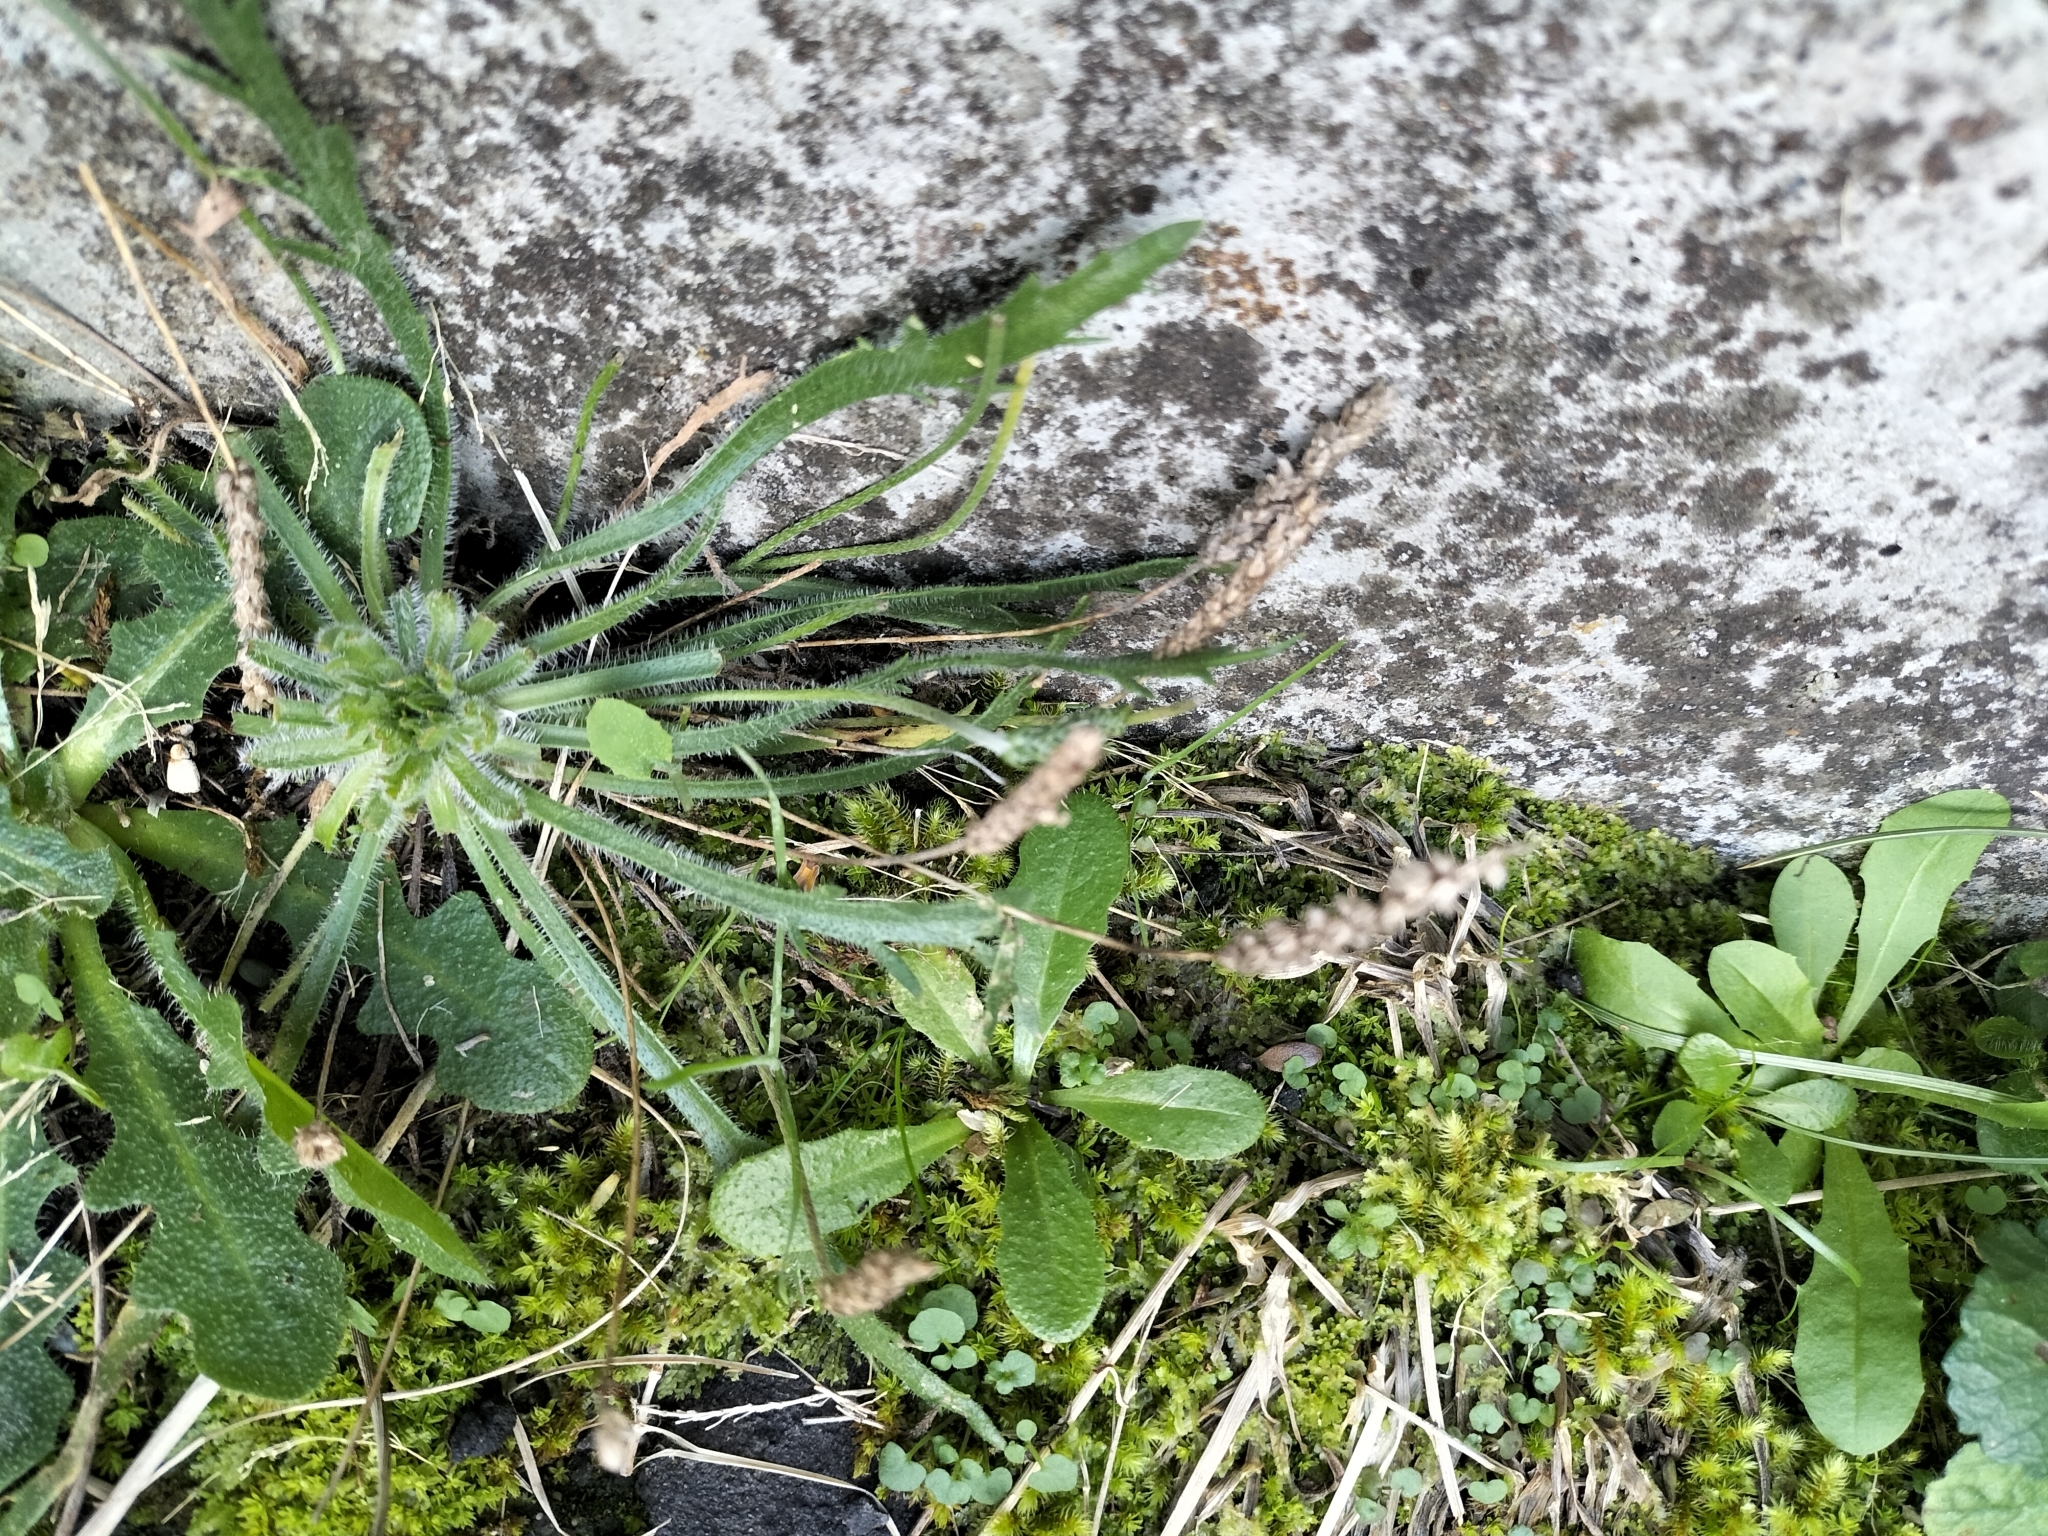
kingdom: Plantae
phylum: Tracheophyta
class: Magnoliopsida
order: Lamiales
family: Plantaginaceae
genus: Plantago
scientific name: Plantago coronopus
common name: Buck's-horn plantain
